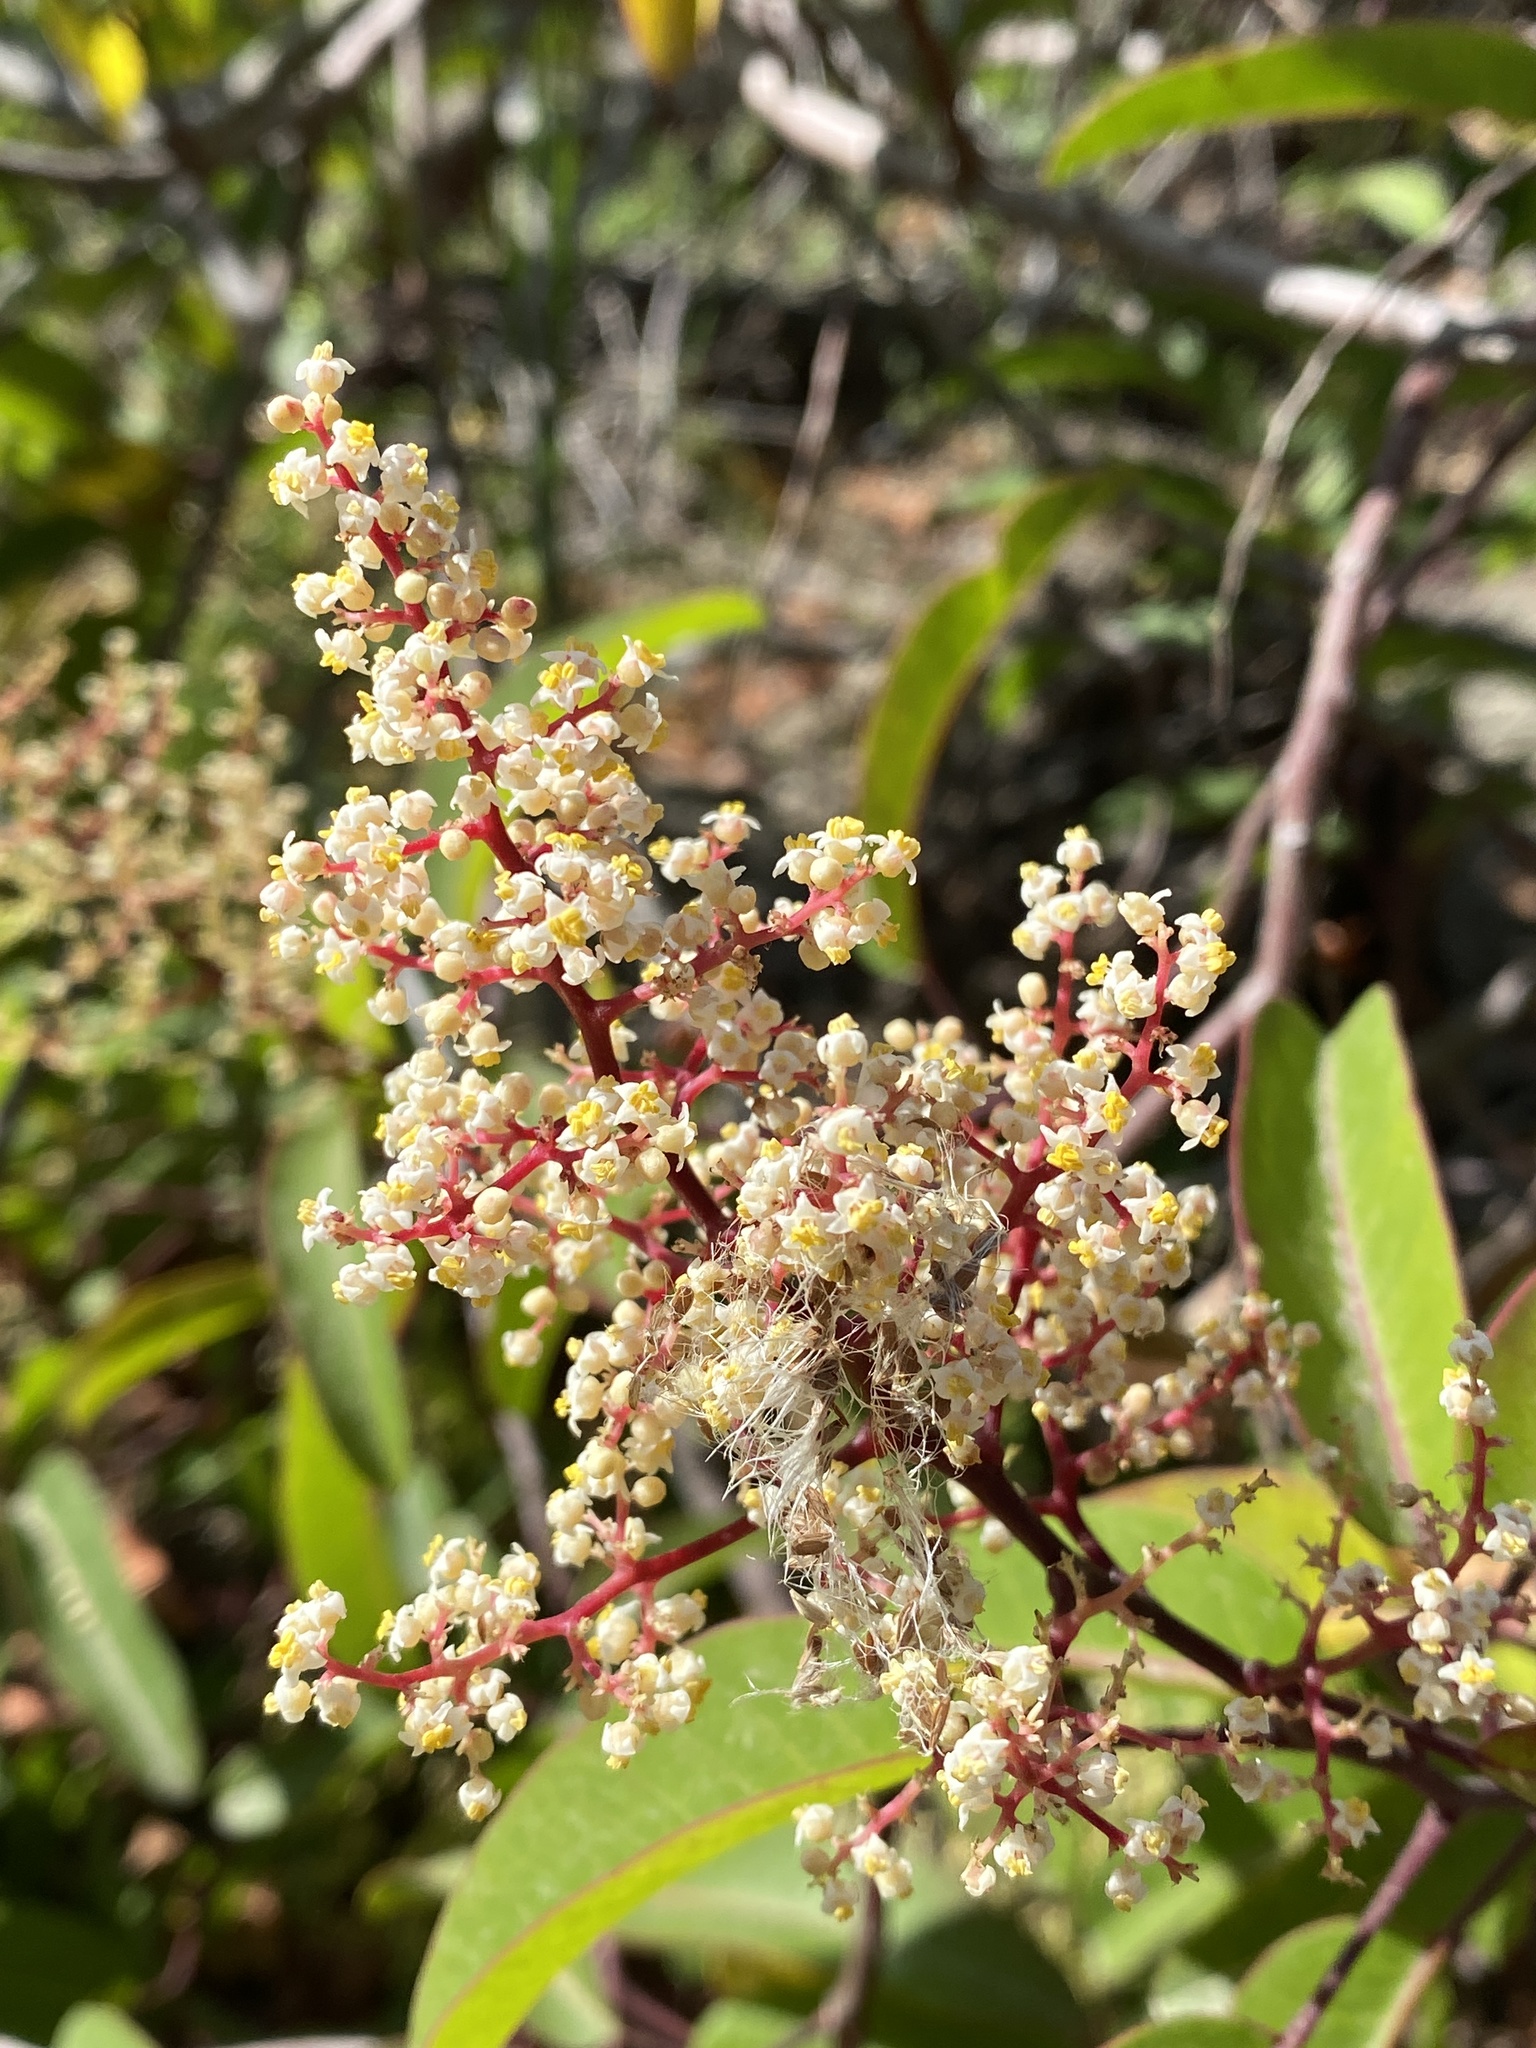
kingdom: Plantae
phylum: Tracheophyta
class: Magnoliopsida
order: Sapindales
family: Anacardiaceae
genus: Malosma
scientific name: Malosma laurina
